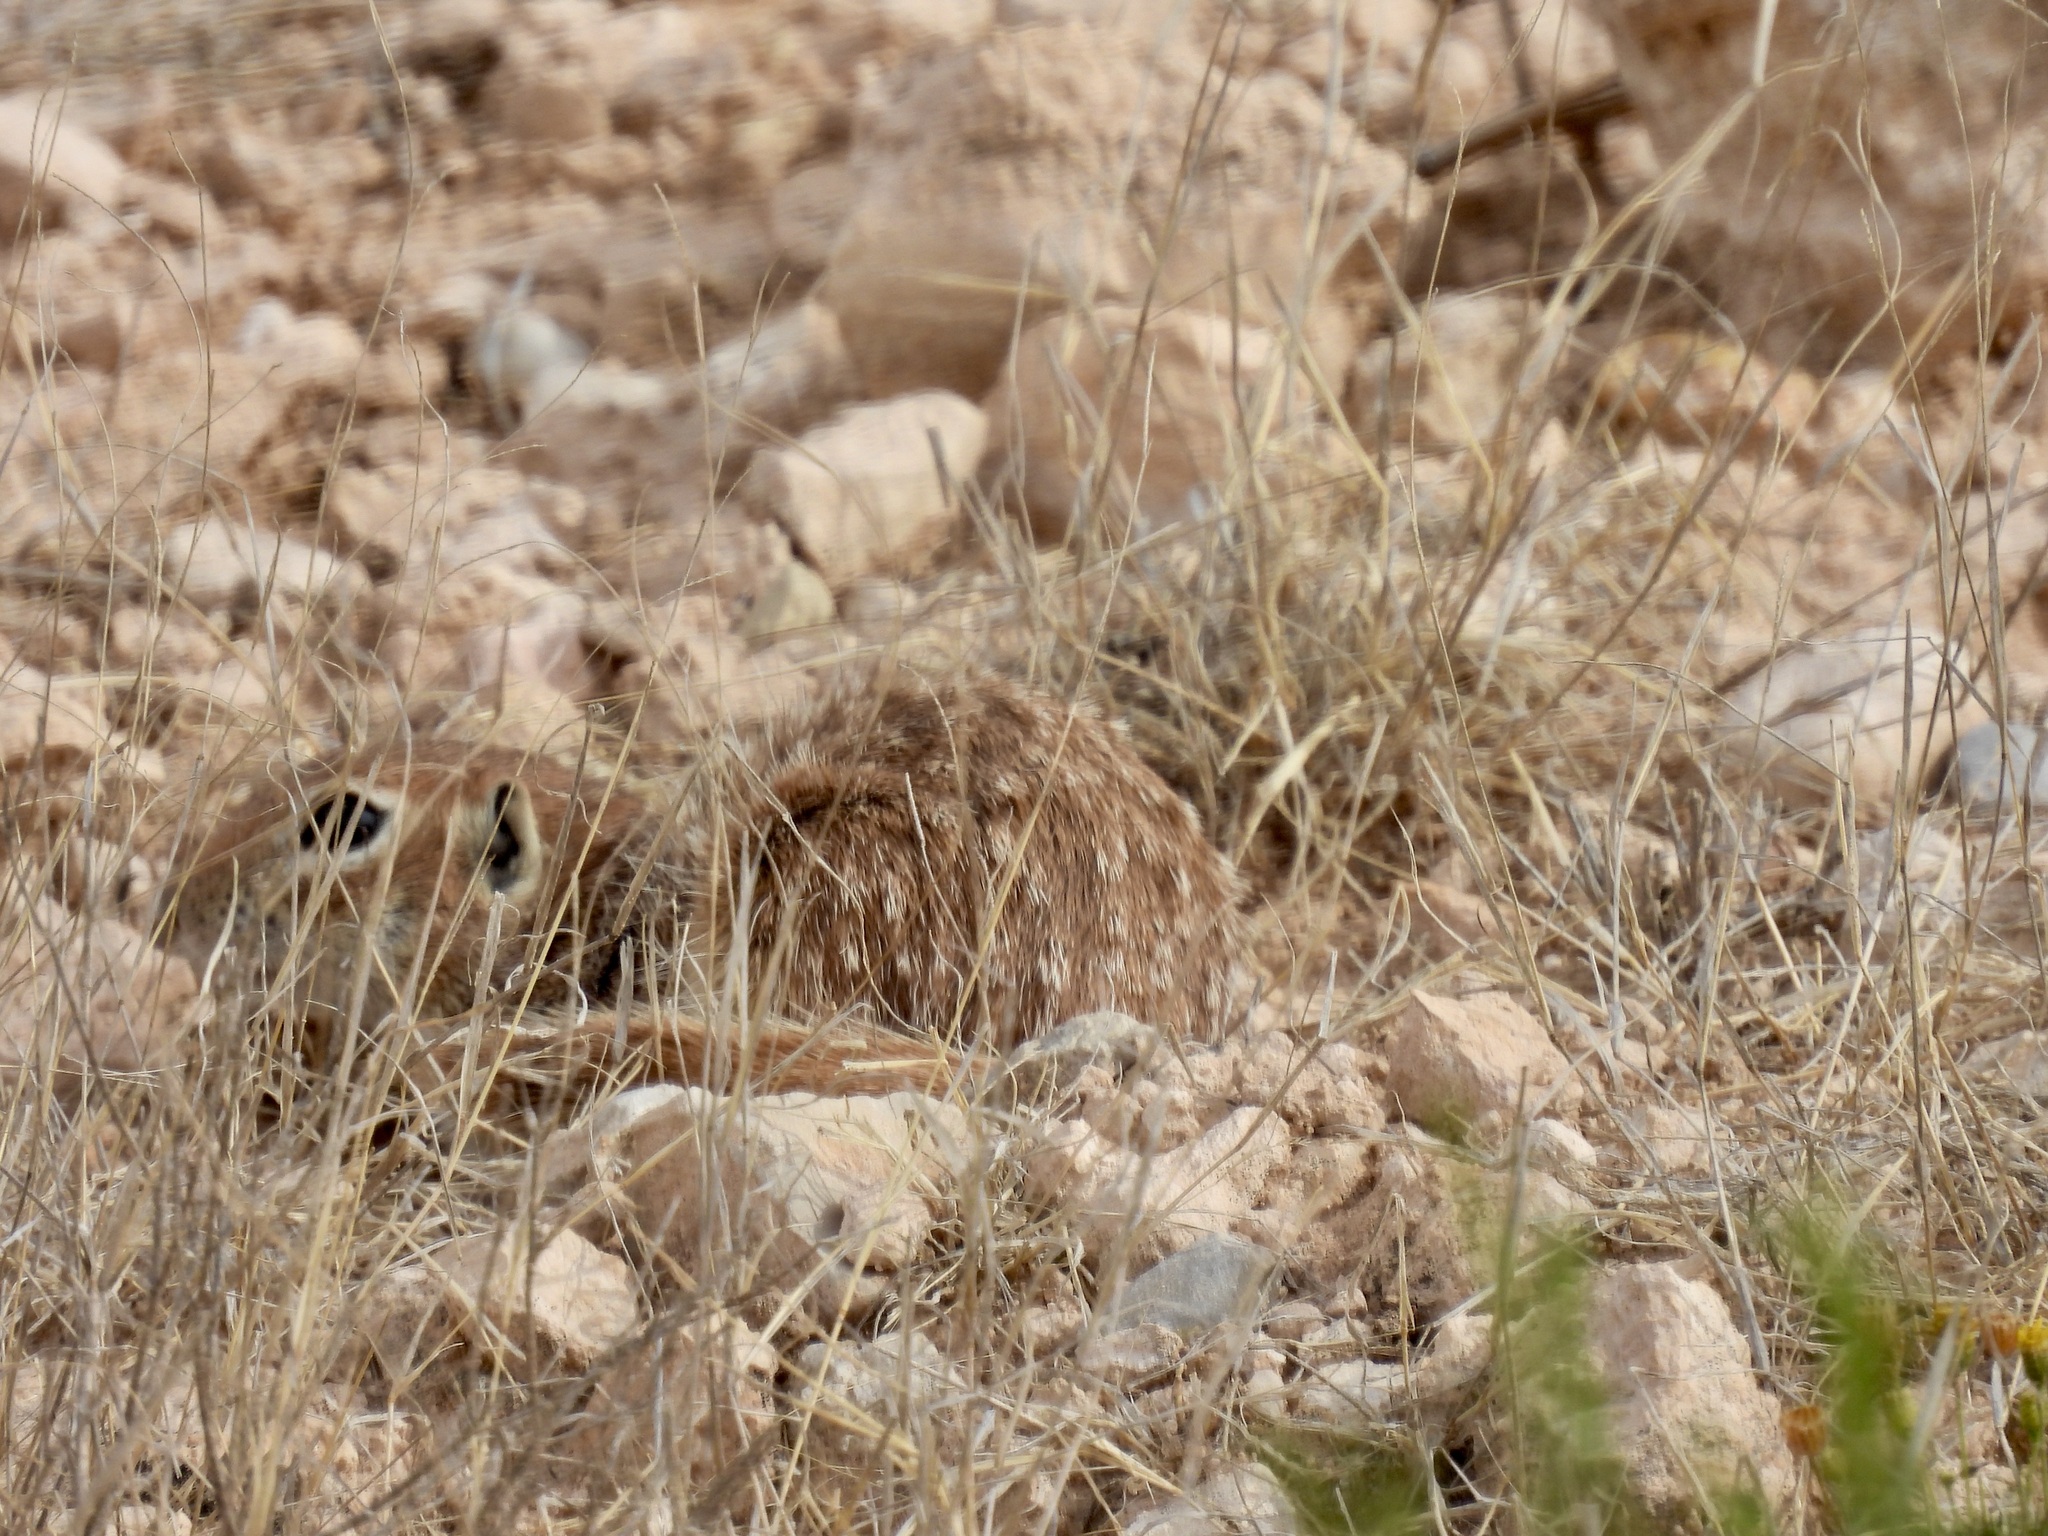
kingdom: Animalia
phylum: Chordata
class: Mammalia
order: Rodentia
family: Sciuridae
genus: Xerospermophilus
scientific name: Xerospermophilus spilosoma
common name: Spotted ground squirrel
